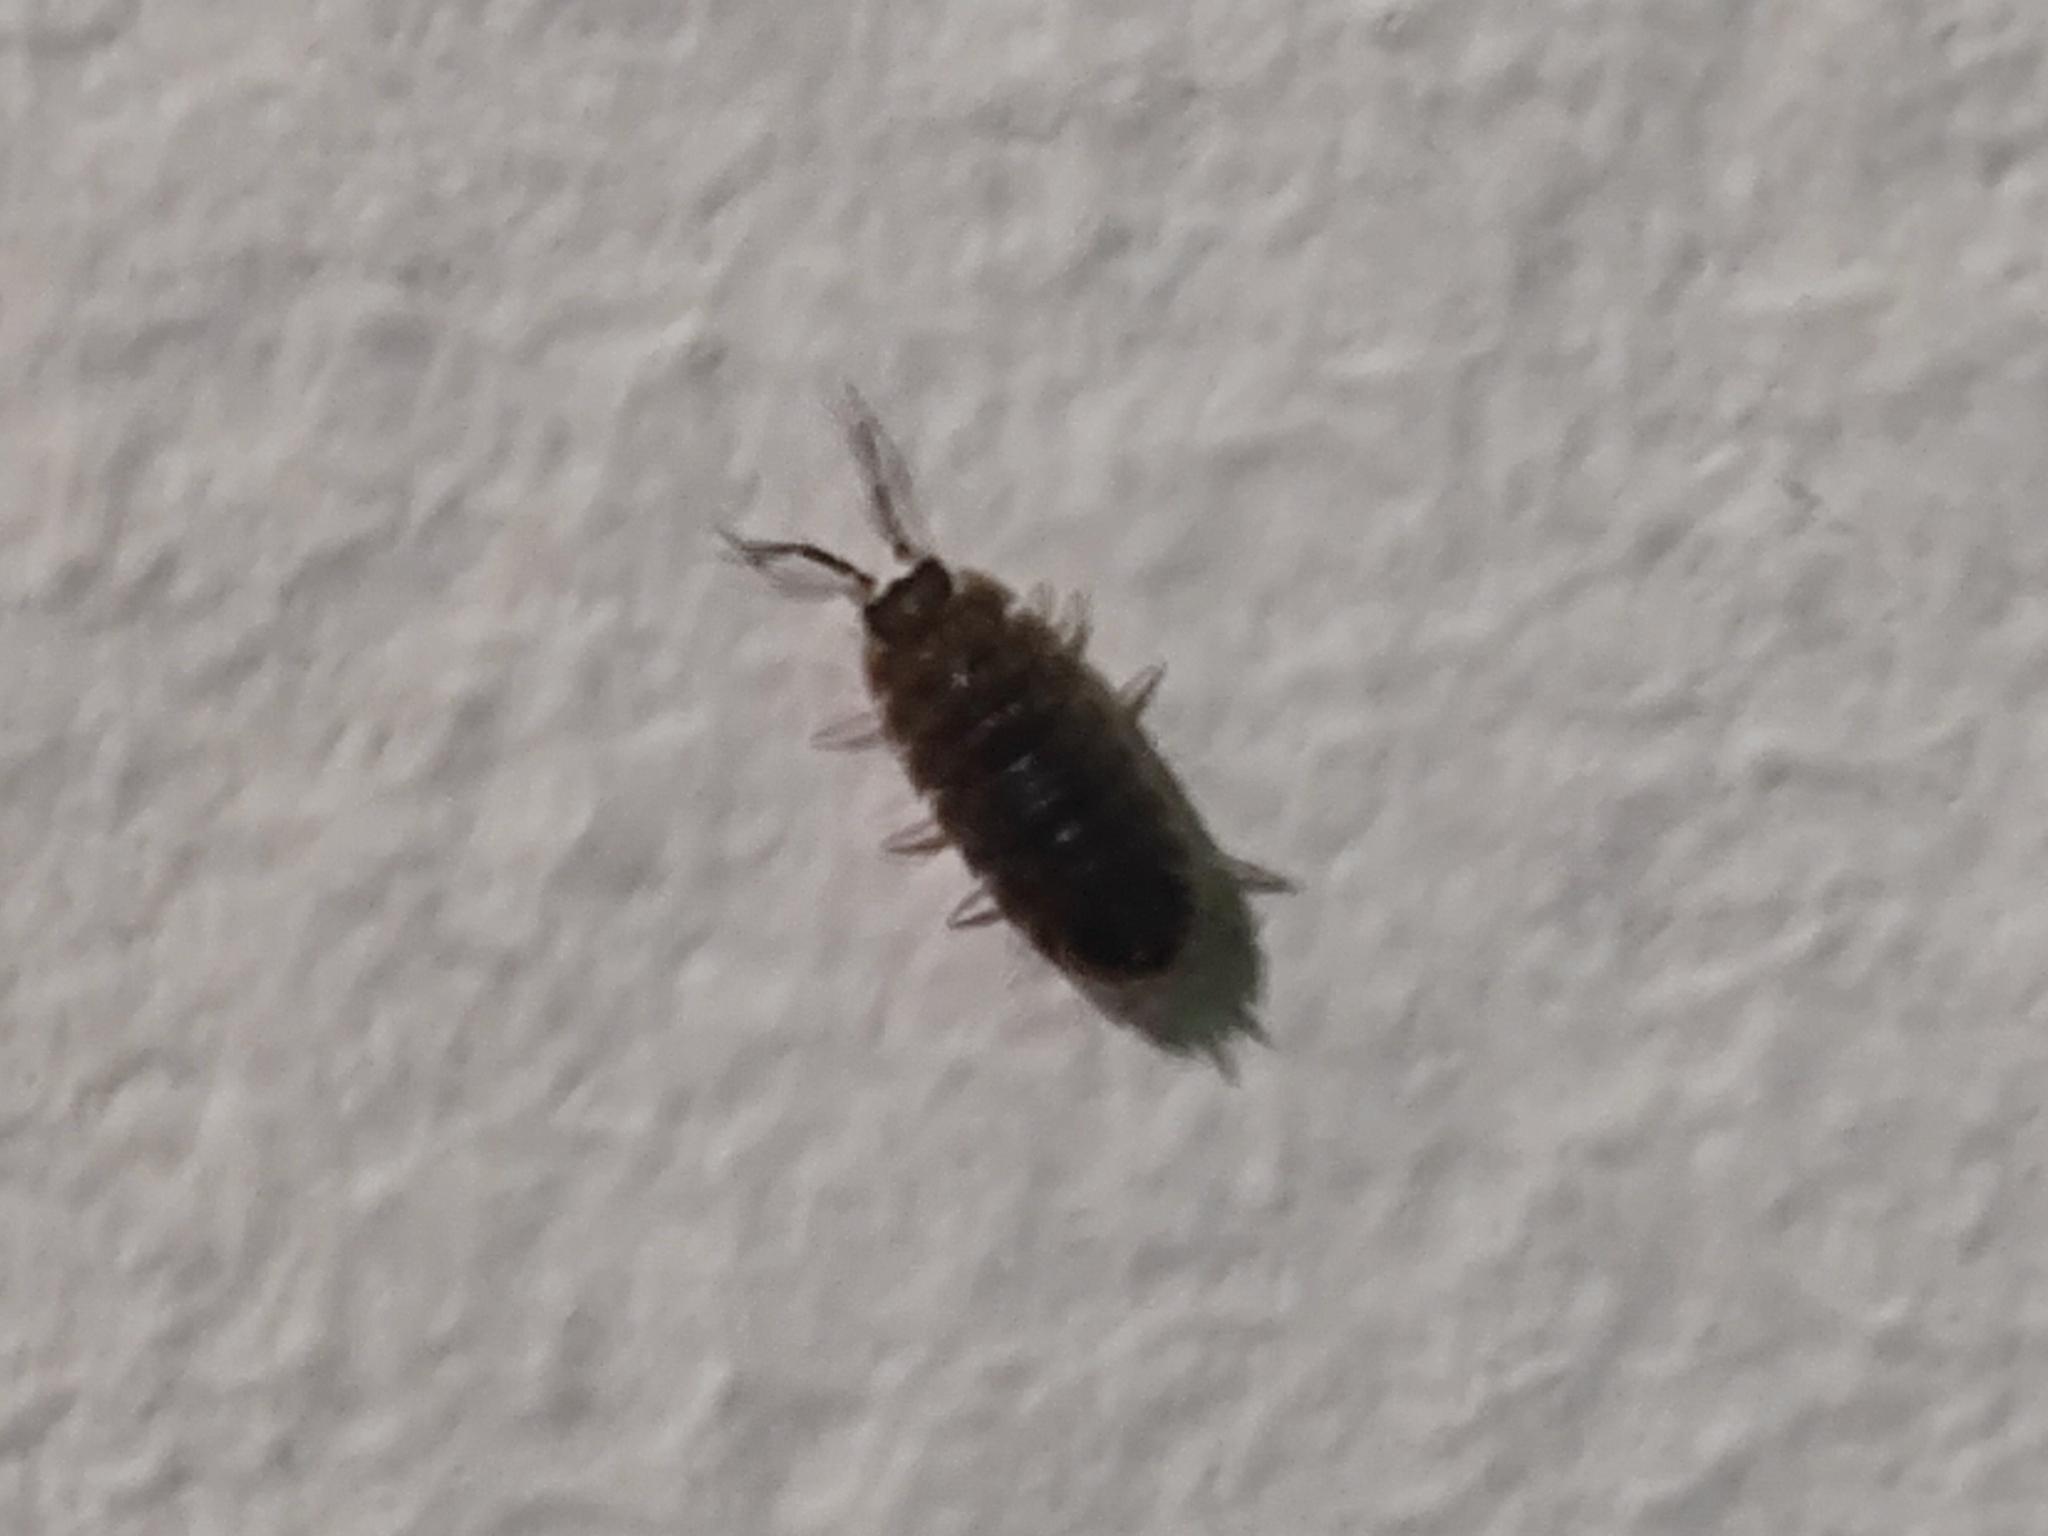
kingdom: Animalia
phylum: Arthropoda
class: Malacostraca
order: Isopoda
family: Porcellionidae
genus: Porcellio
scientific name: Porcellio scaber
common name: Common rough woodlouse
